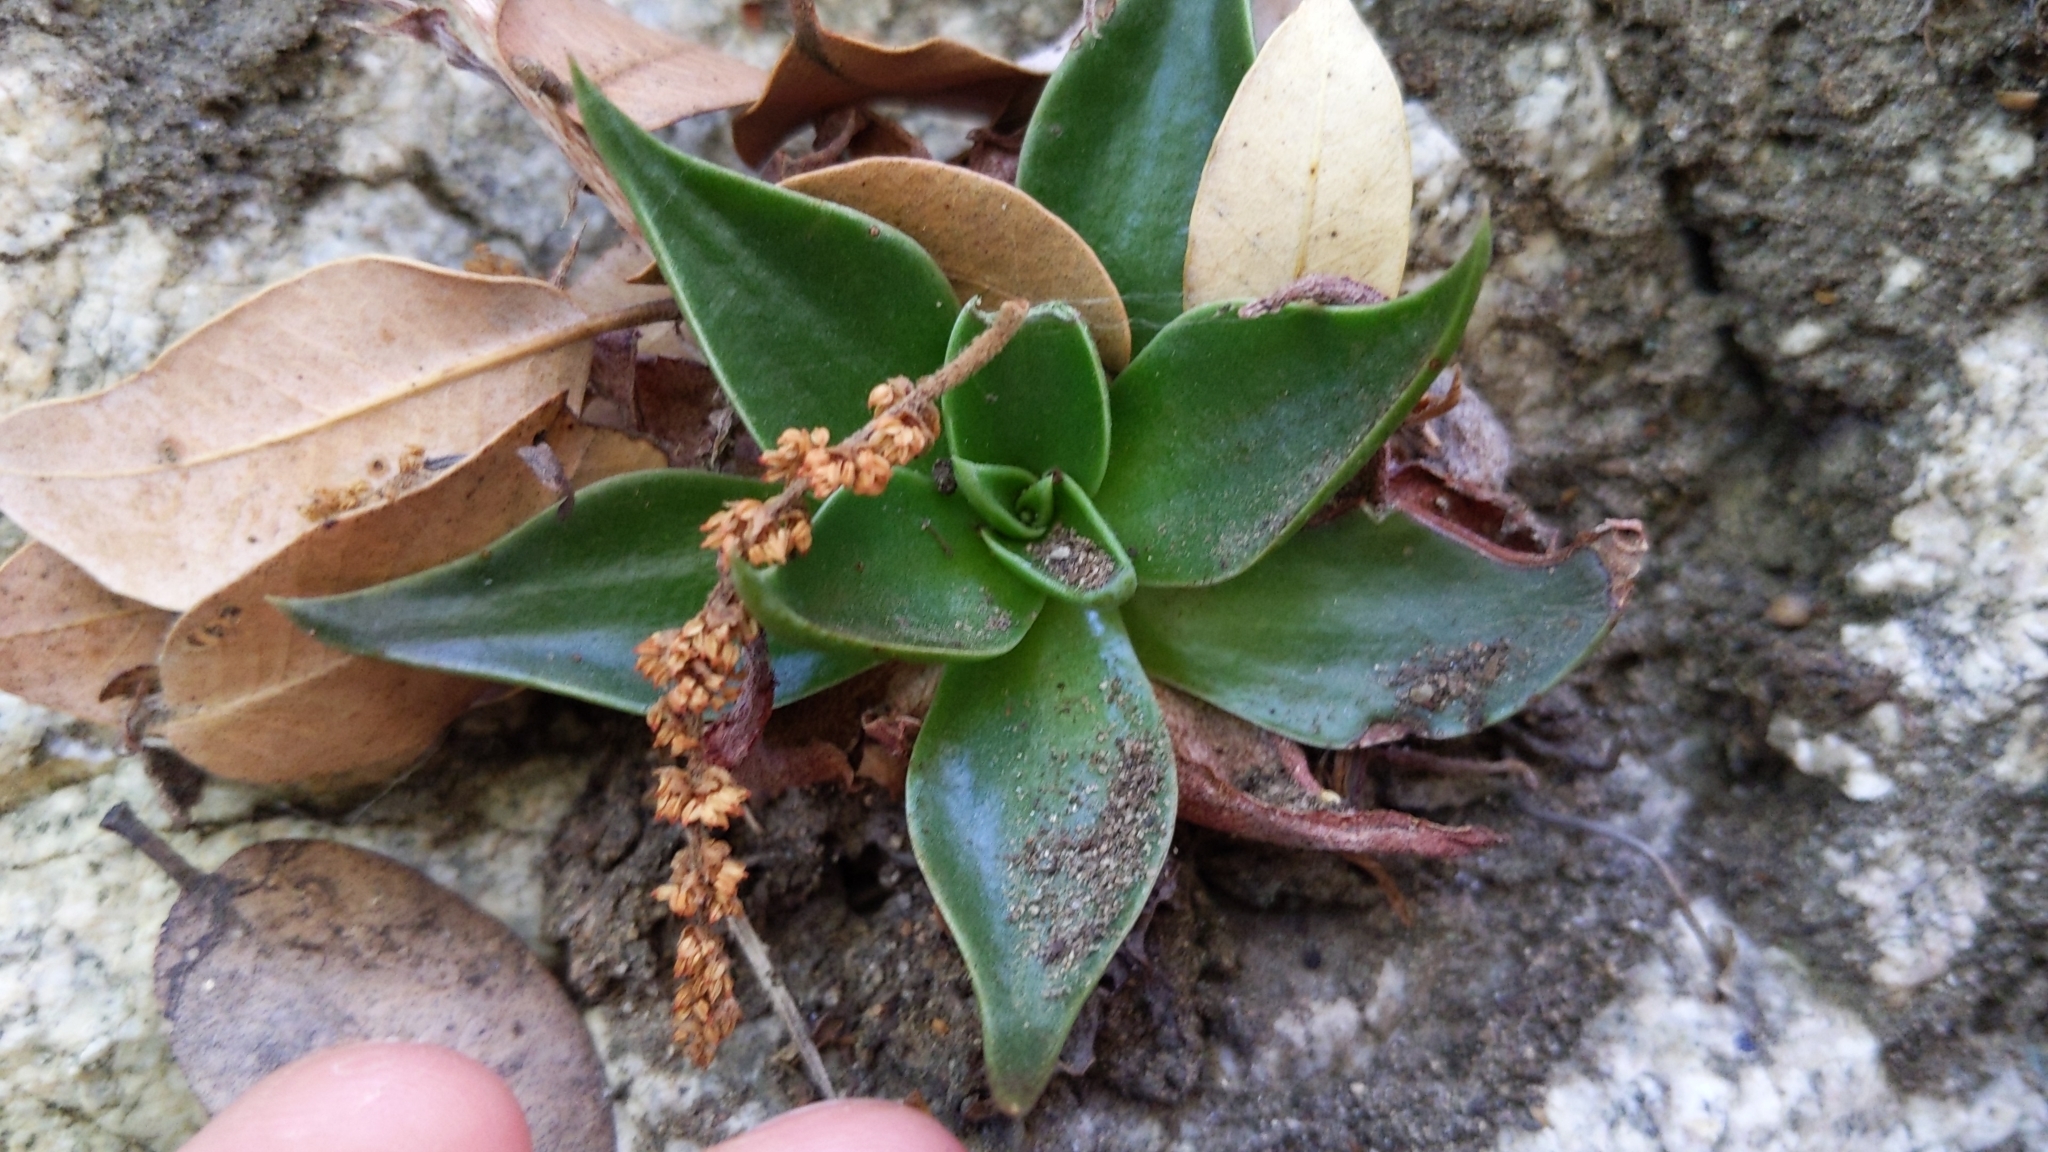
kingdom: Plantae
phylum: Tracheophyta
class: Magnoliopsida
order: Saxifragales
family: Crassulaceae
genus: Dudleya
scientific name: Dudleya cymosa
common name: Canyon dudleya
